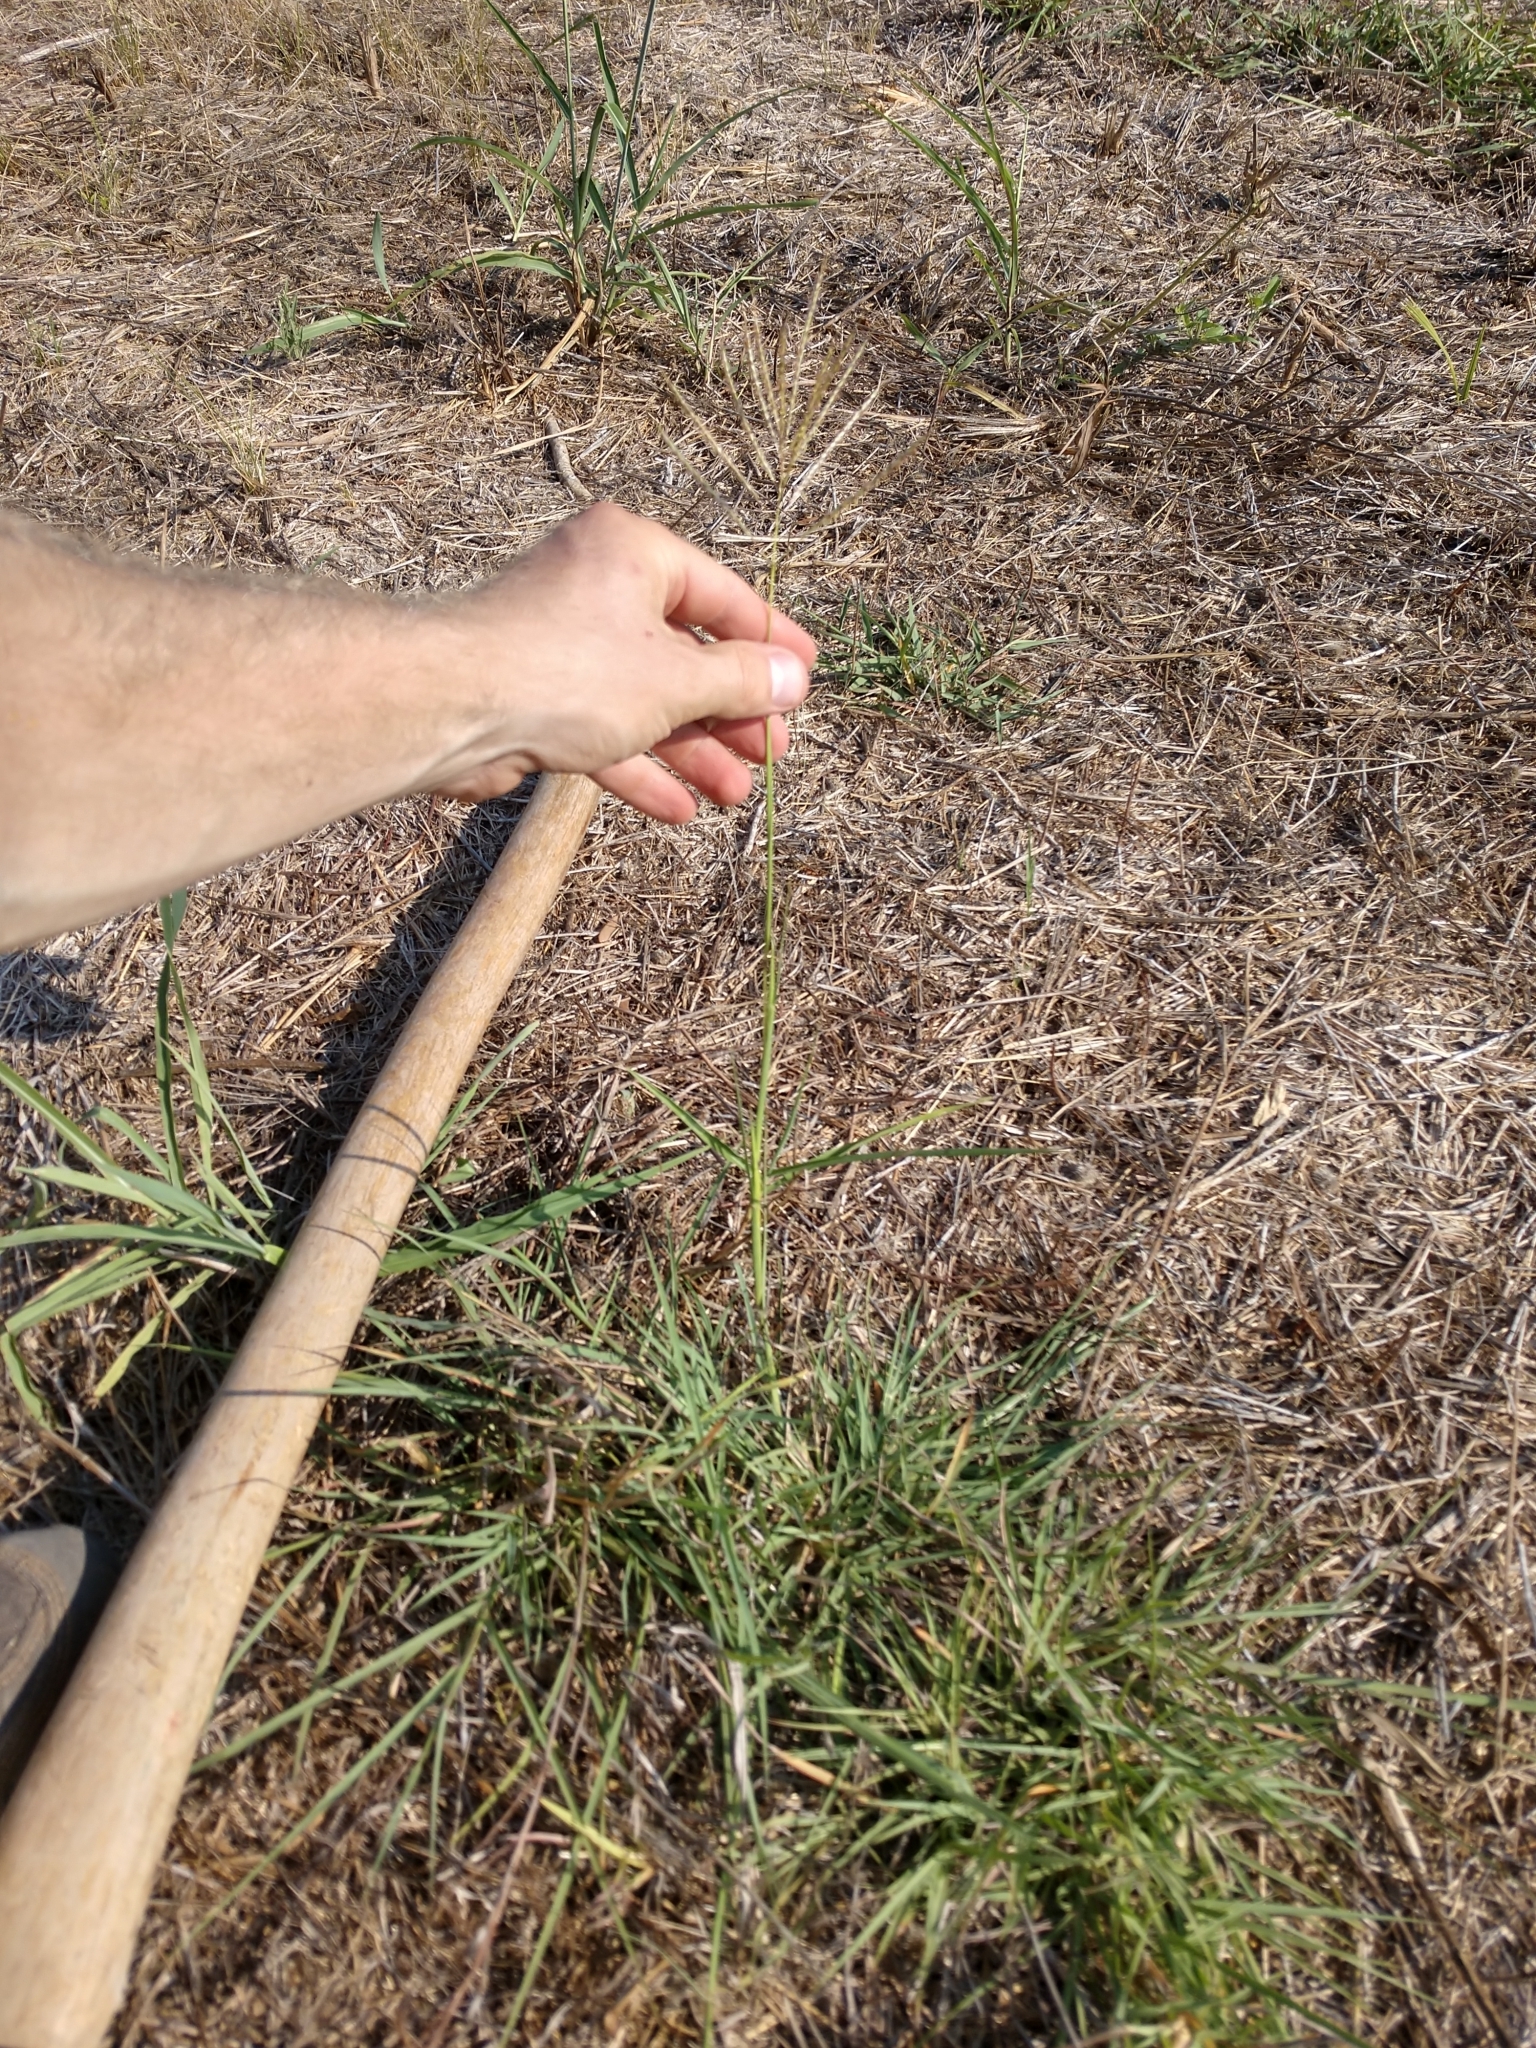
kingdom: Plantae
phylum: Tracheophyta
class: Liliopsida
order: Poales
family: Poaceae
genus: Bothriochloa
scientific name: Bothriochloa ischaemum
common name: Yellow bluestem
